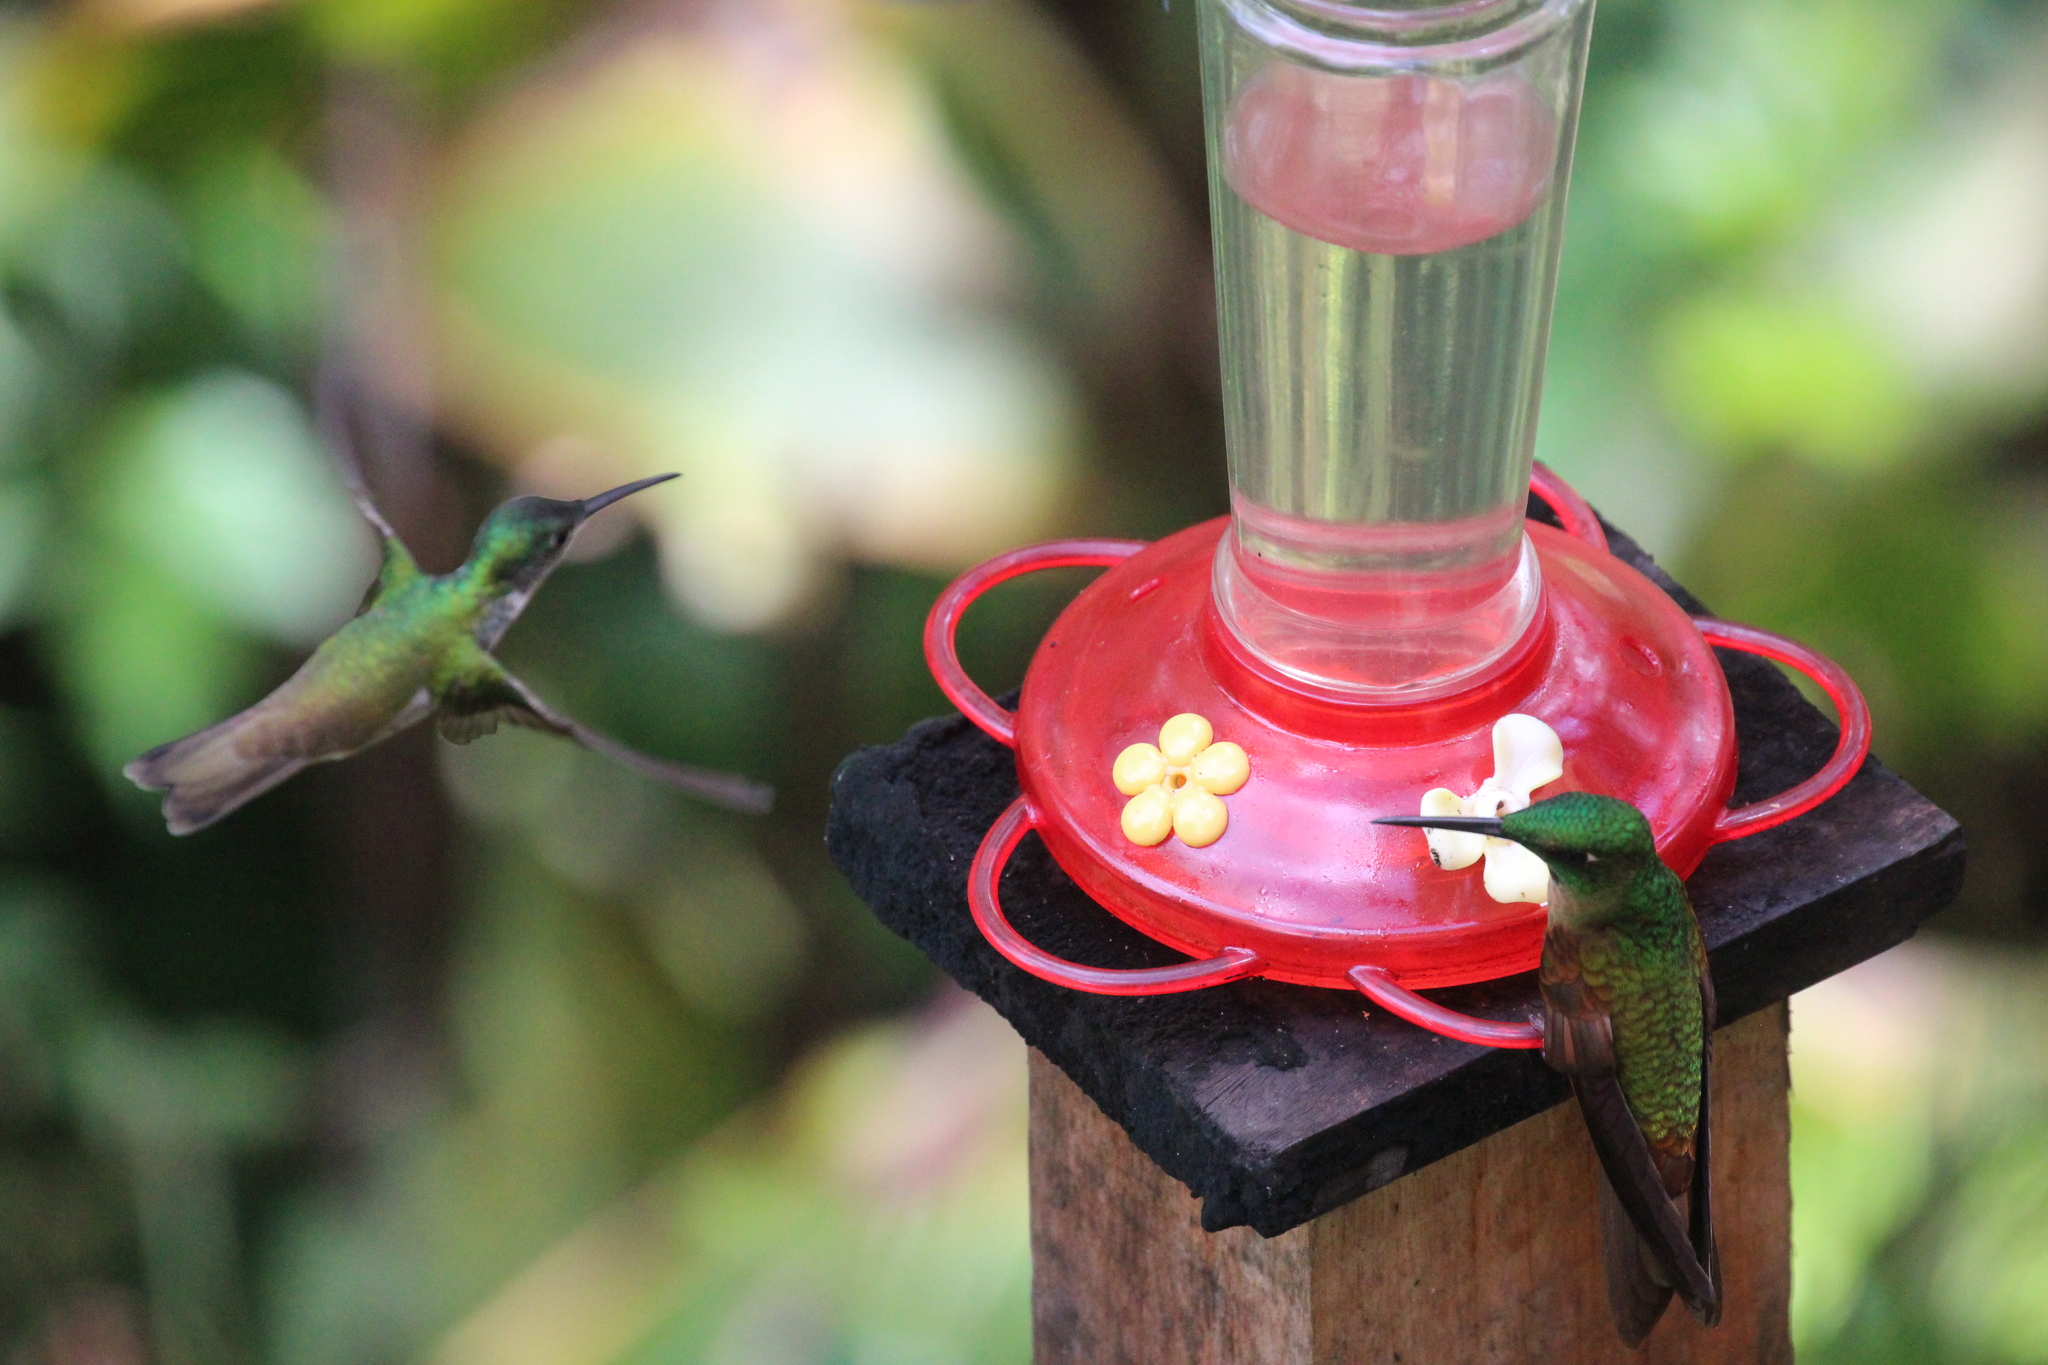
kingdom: Animalia
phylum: Chordata
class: Aves
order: Apodiformes
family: Trochilidae
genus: Heliodoxa
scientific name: Heliodoxa rubinoides
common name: Fawn-breasted brilliant
